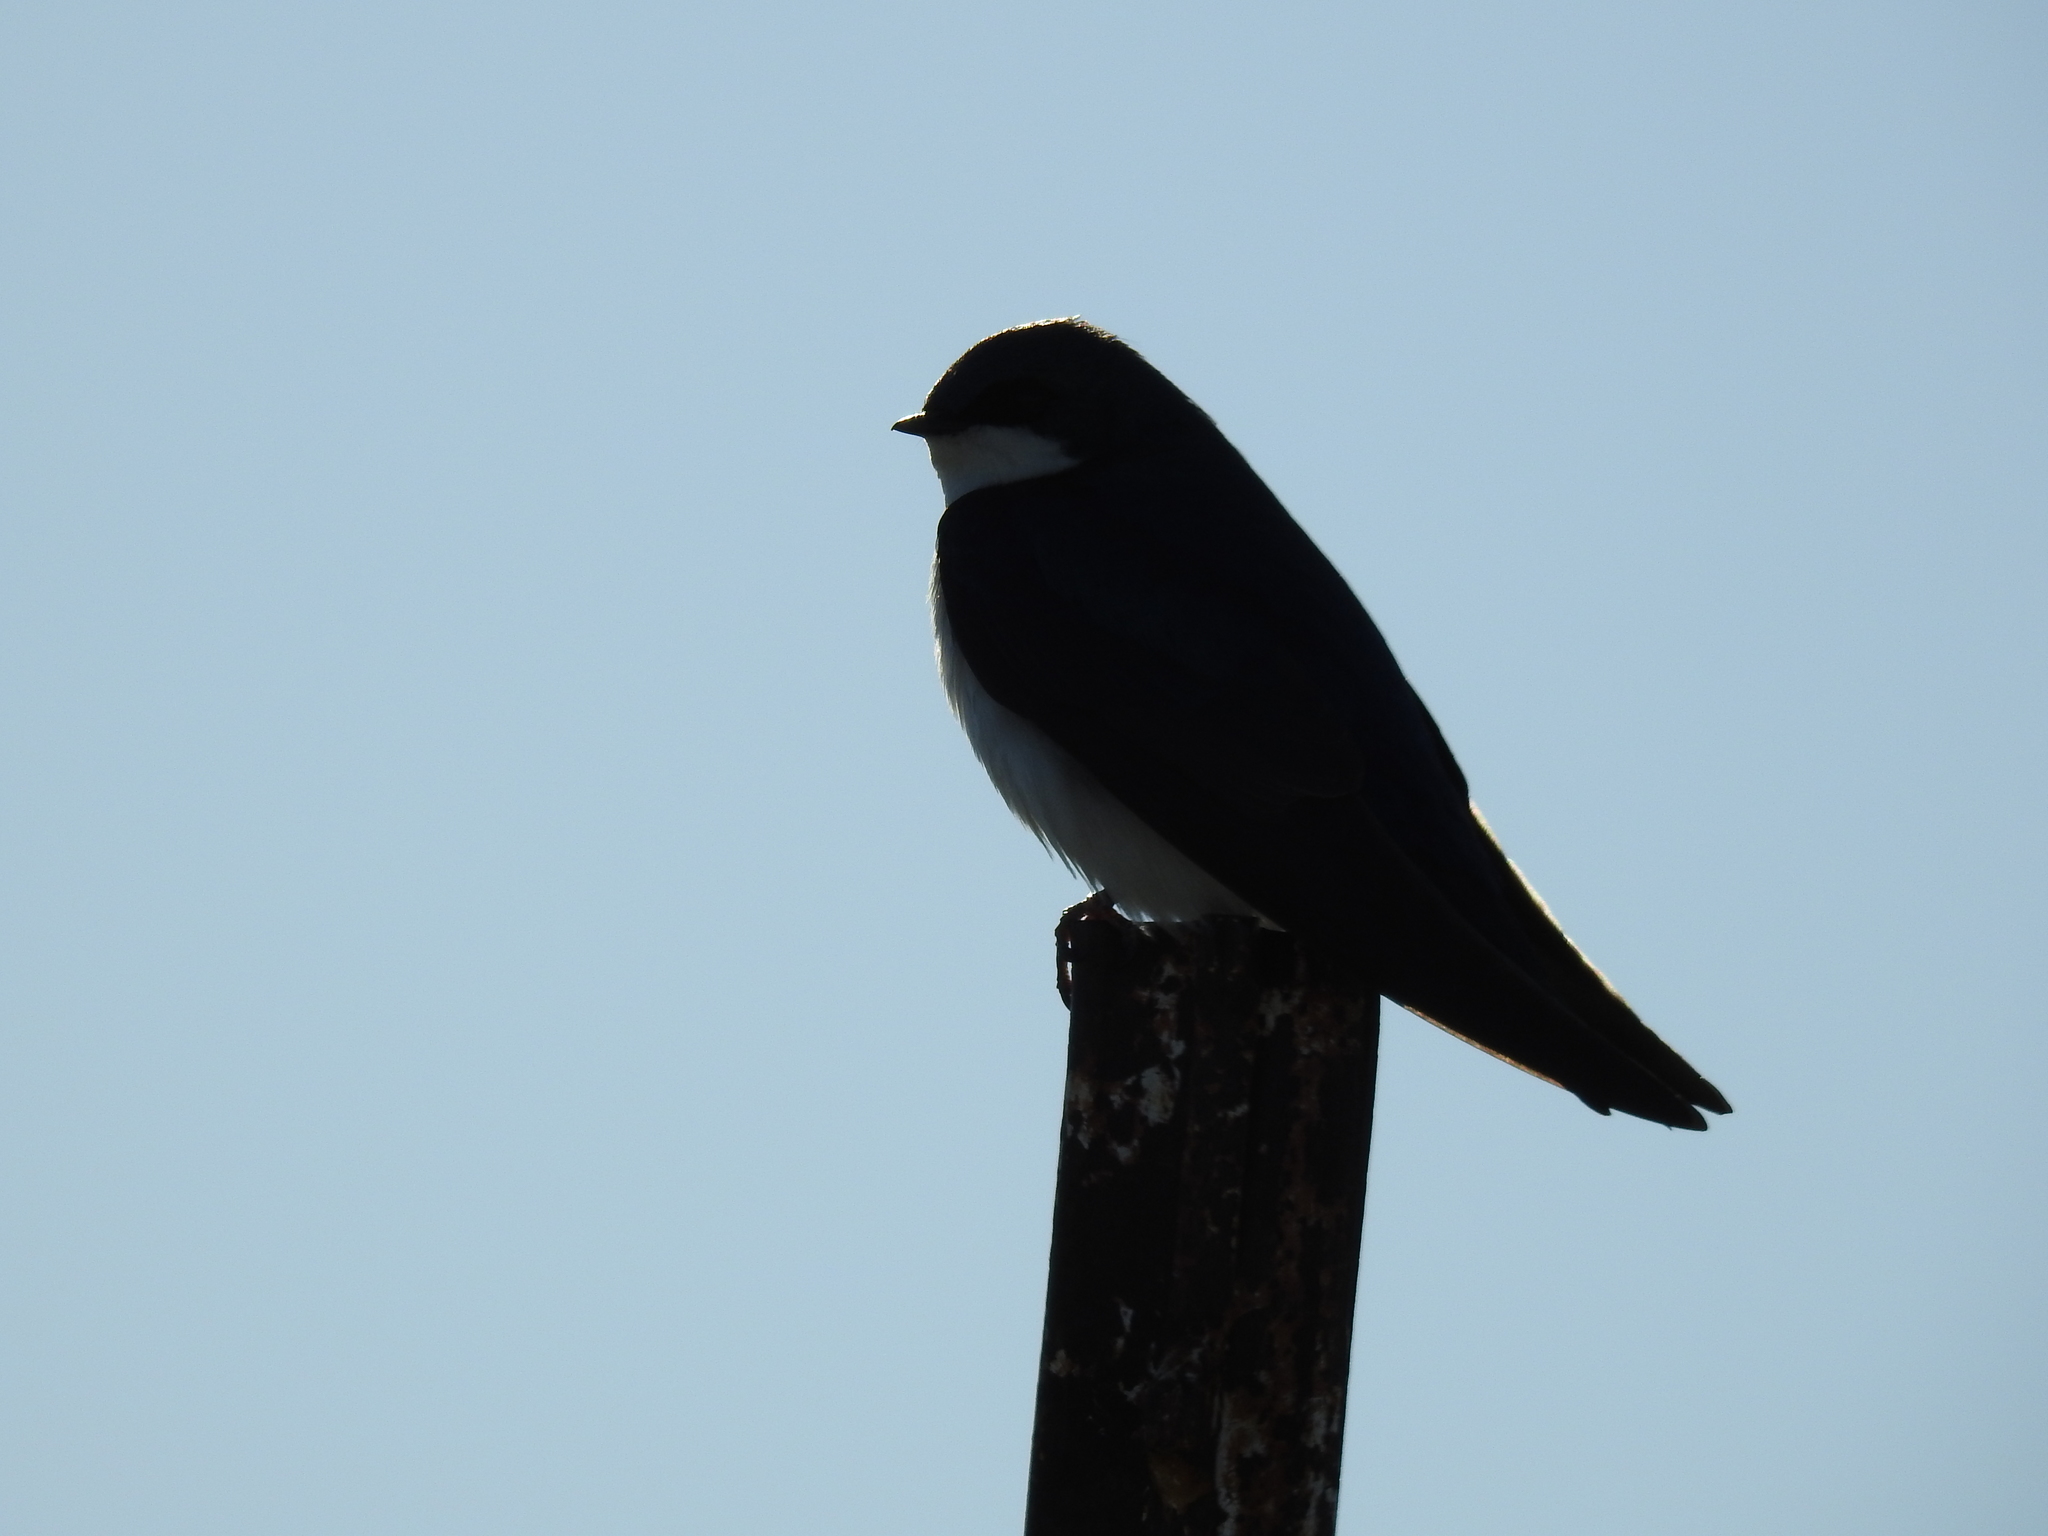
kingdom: Animalia
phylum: Chordata
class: Aves
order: Passeriformes
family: Hirundinidae
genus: Tachycineta
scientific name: Tachycineta bicolor
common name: Tree swallow
